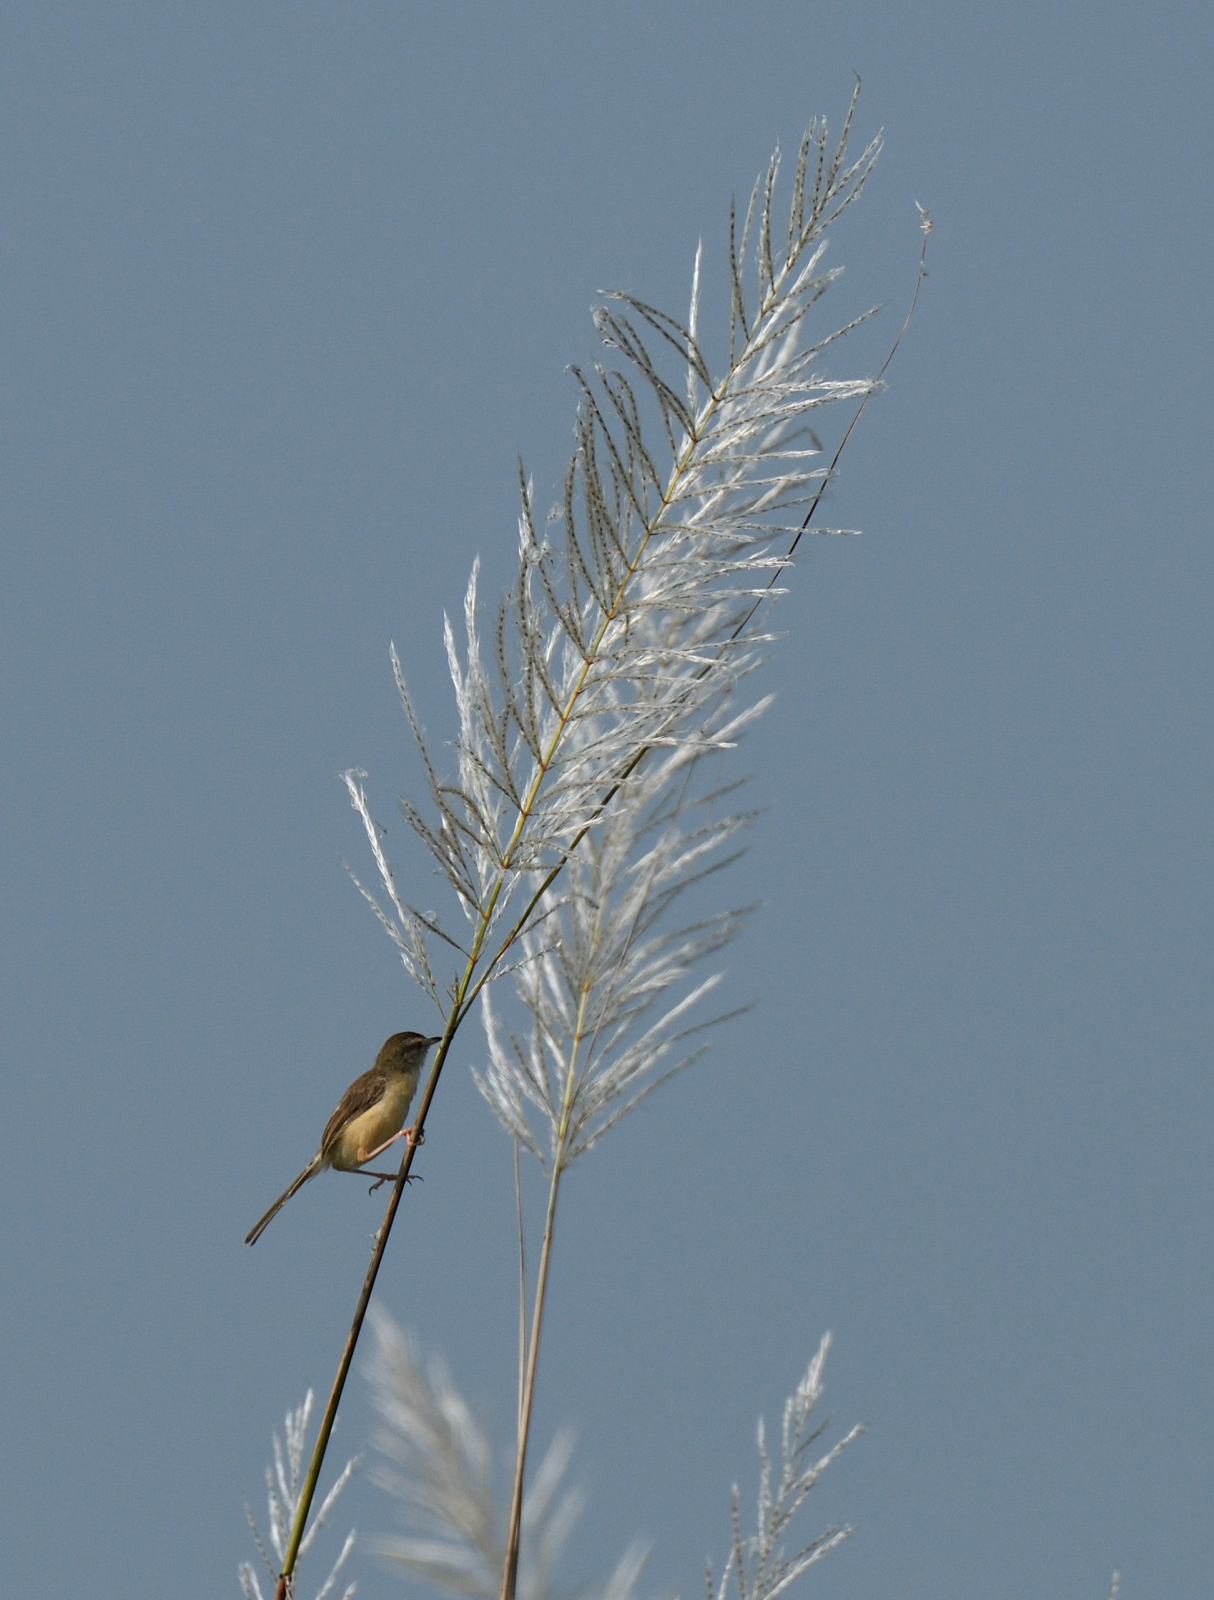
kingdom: Animalia
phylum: Chordata
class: Aves
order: Passeriformes
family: Cisticolidae
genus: Prinia
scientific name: Prinia inornata
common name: Plain prinia
